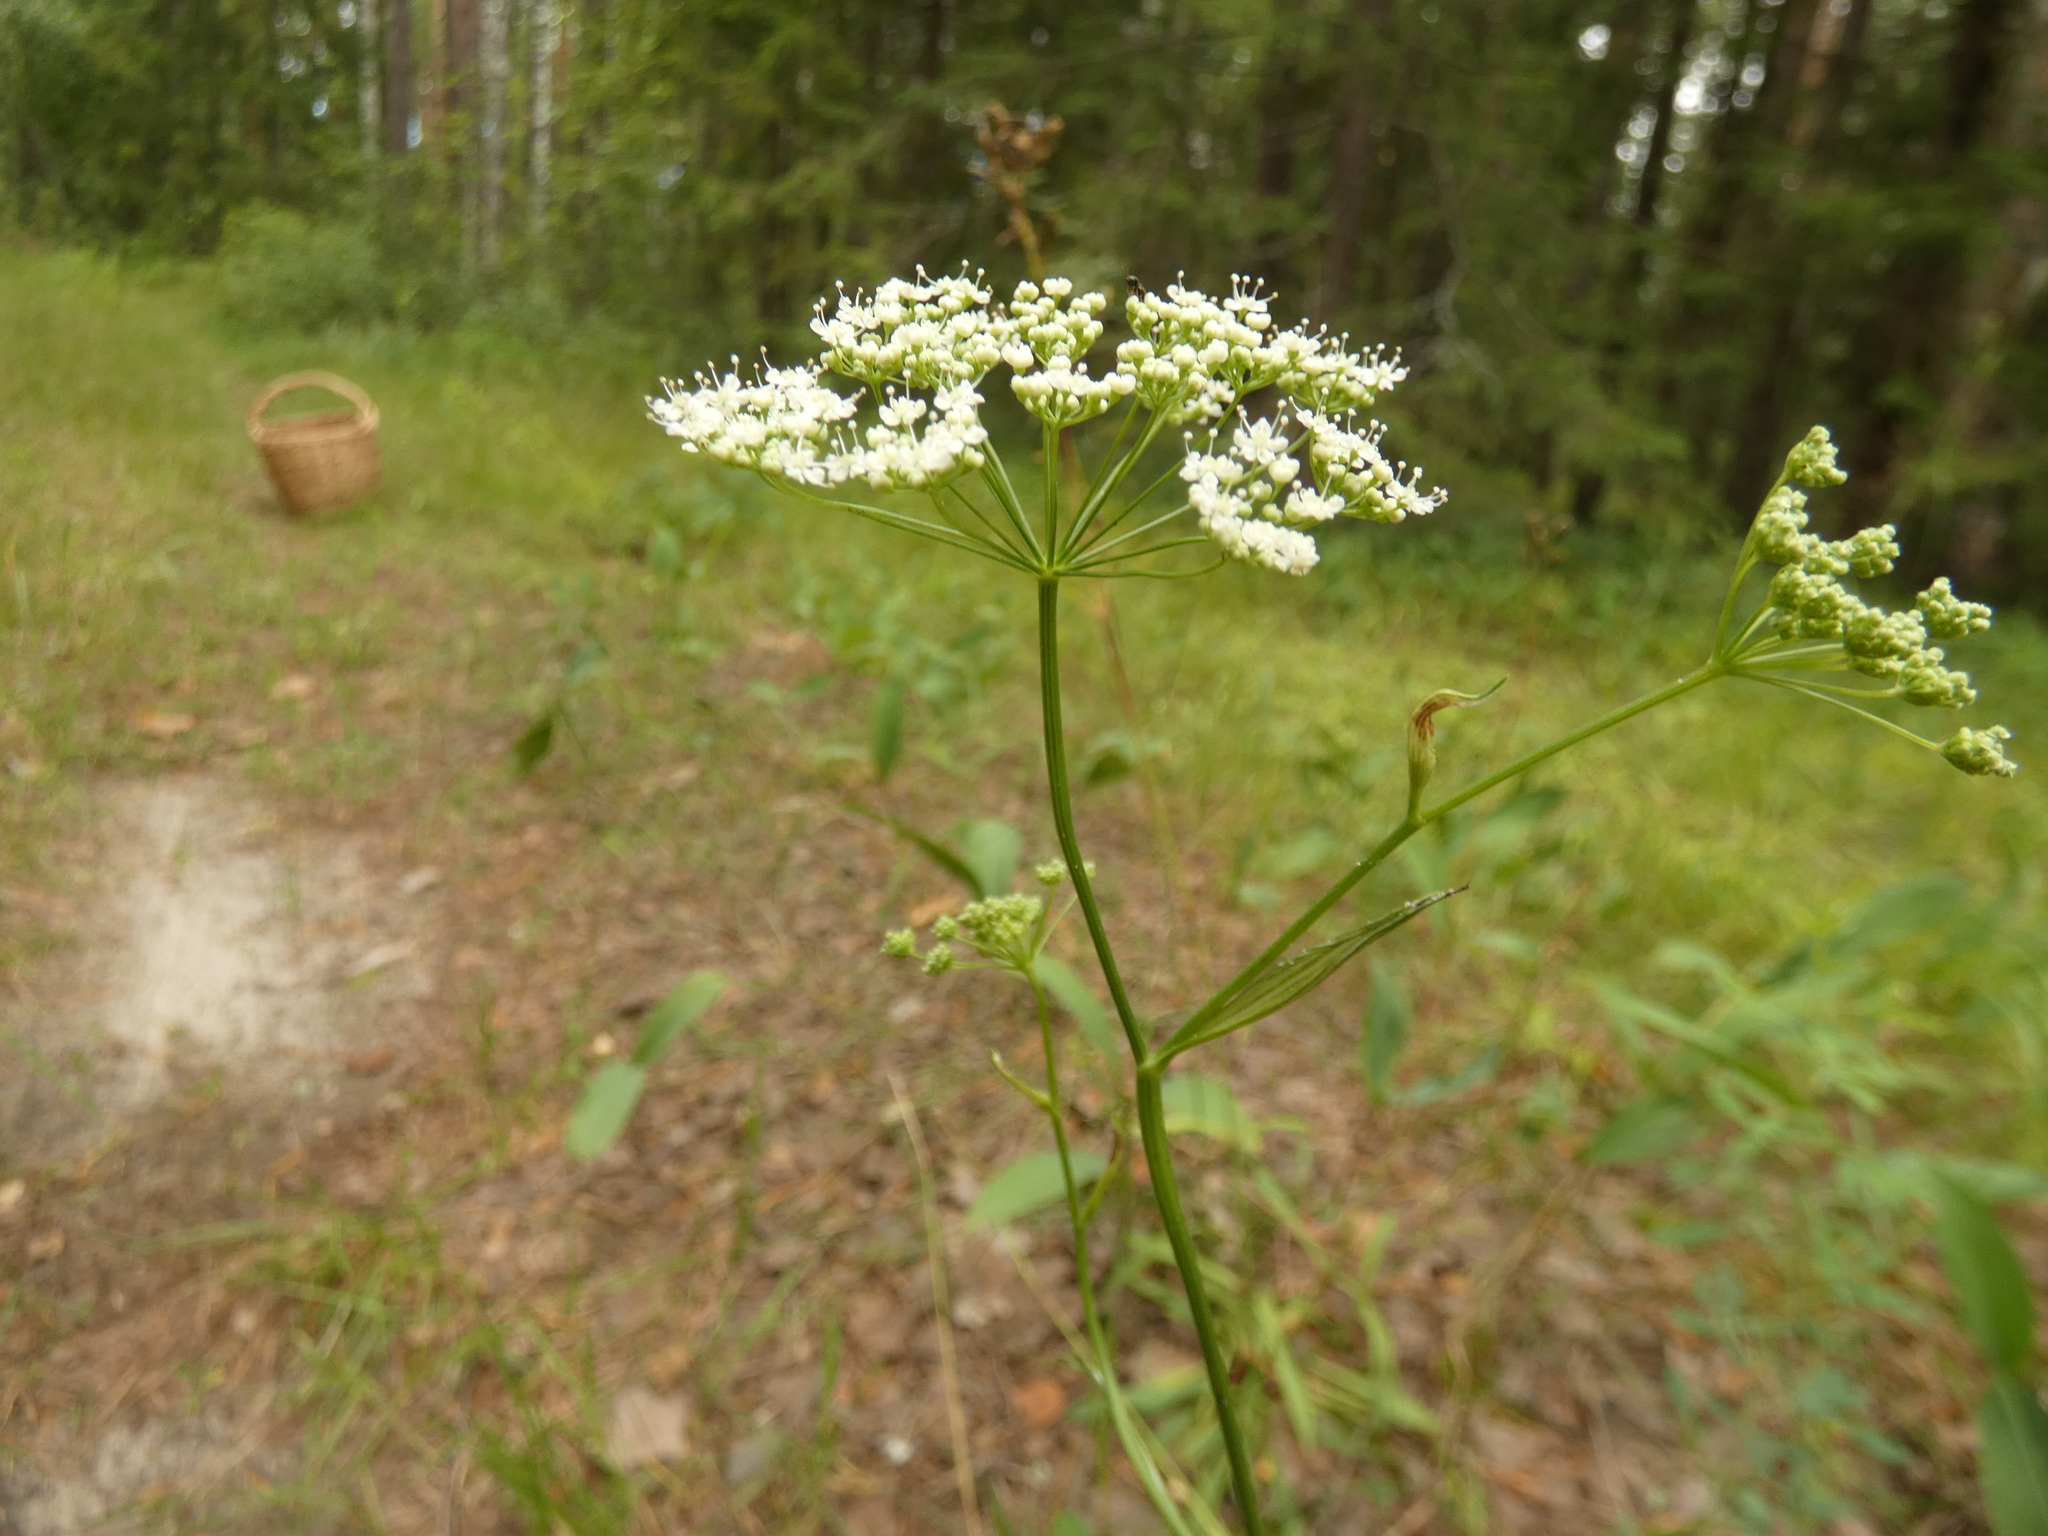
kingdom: Plantae
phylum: Tracheophyta
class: Magnoliopsida
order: Apiales
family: Apiaceae
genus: Pimpinella
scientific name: Pimpinella saxifraga
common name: Burnet-saxifrage
